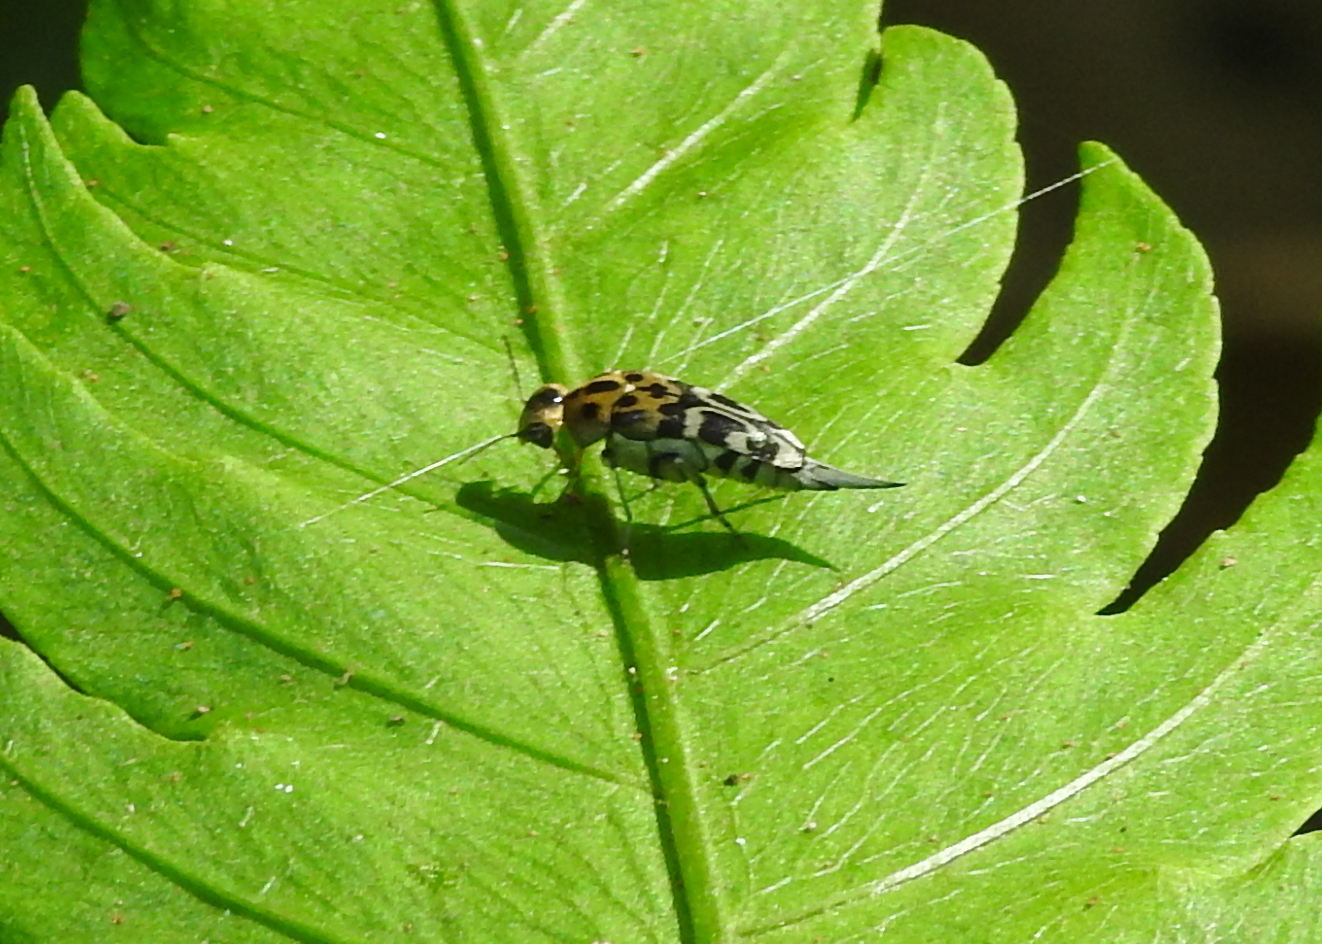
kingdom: Animalia
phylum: Arthropoda
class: Insecta
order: Coleoptera
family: Mordellidae
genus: Glipa
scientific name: Glipa
